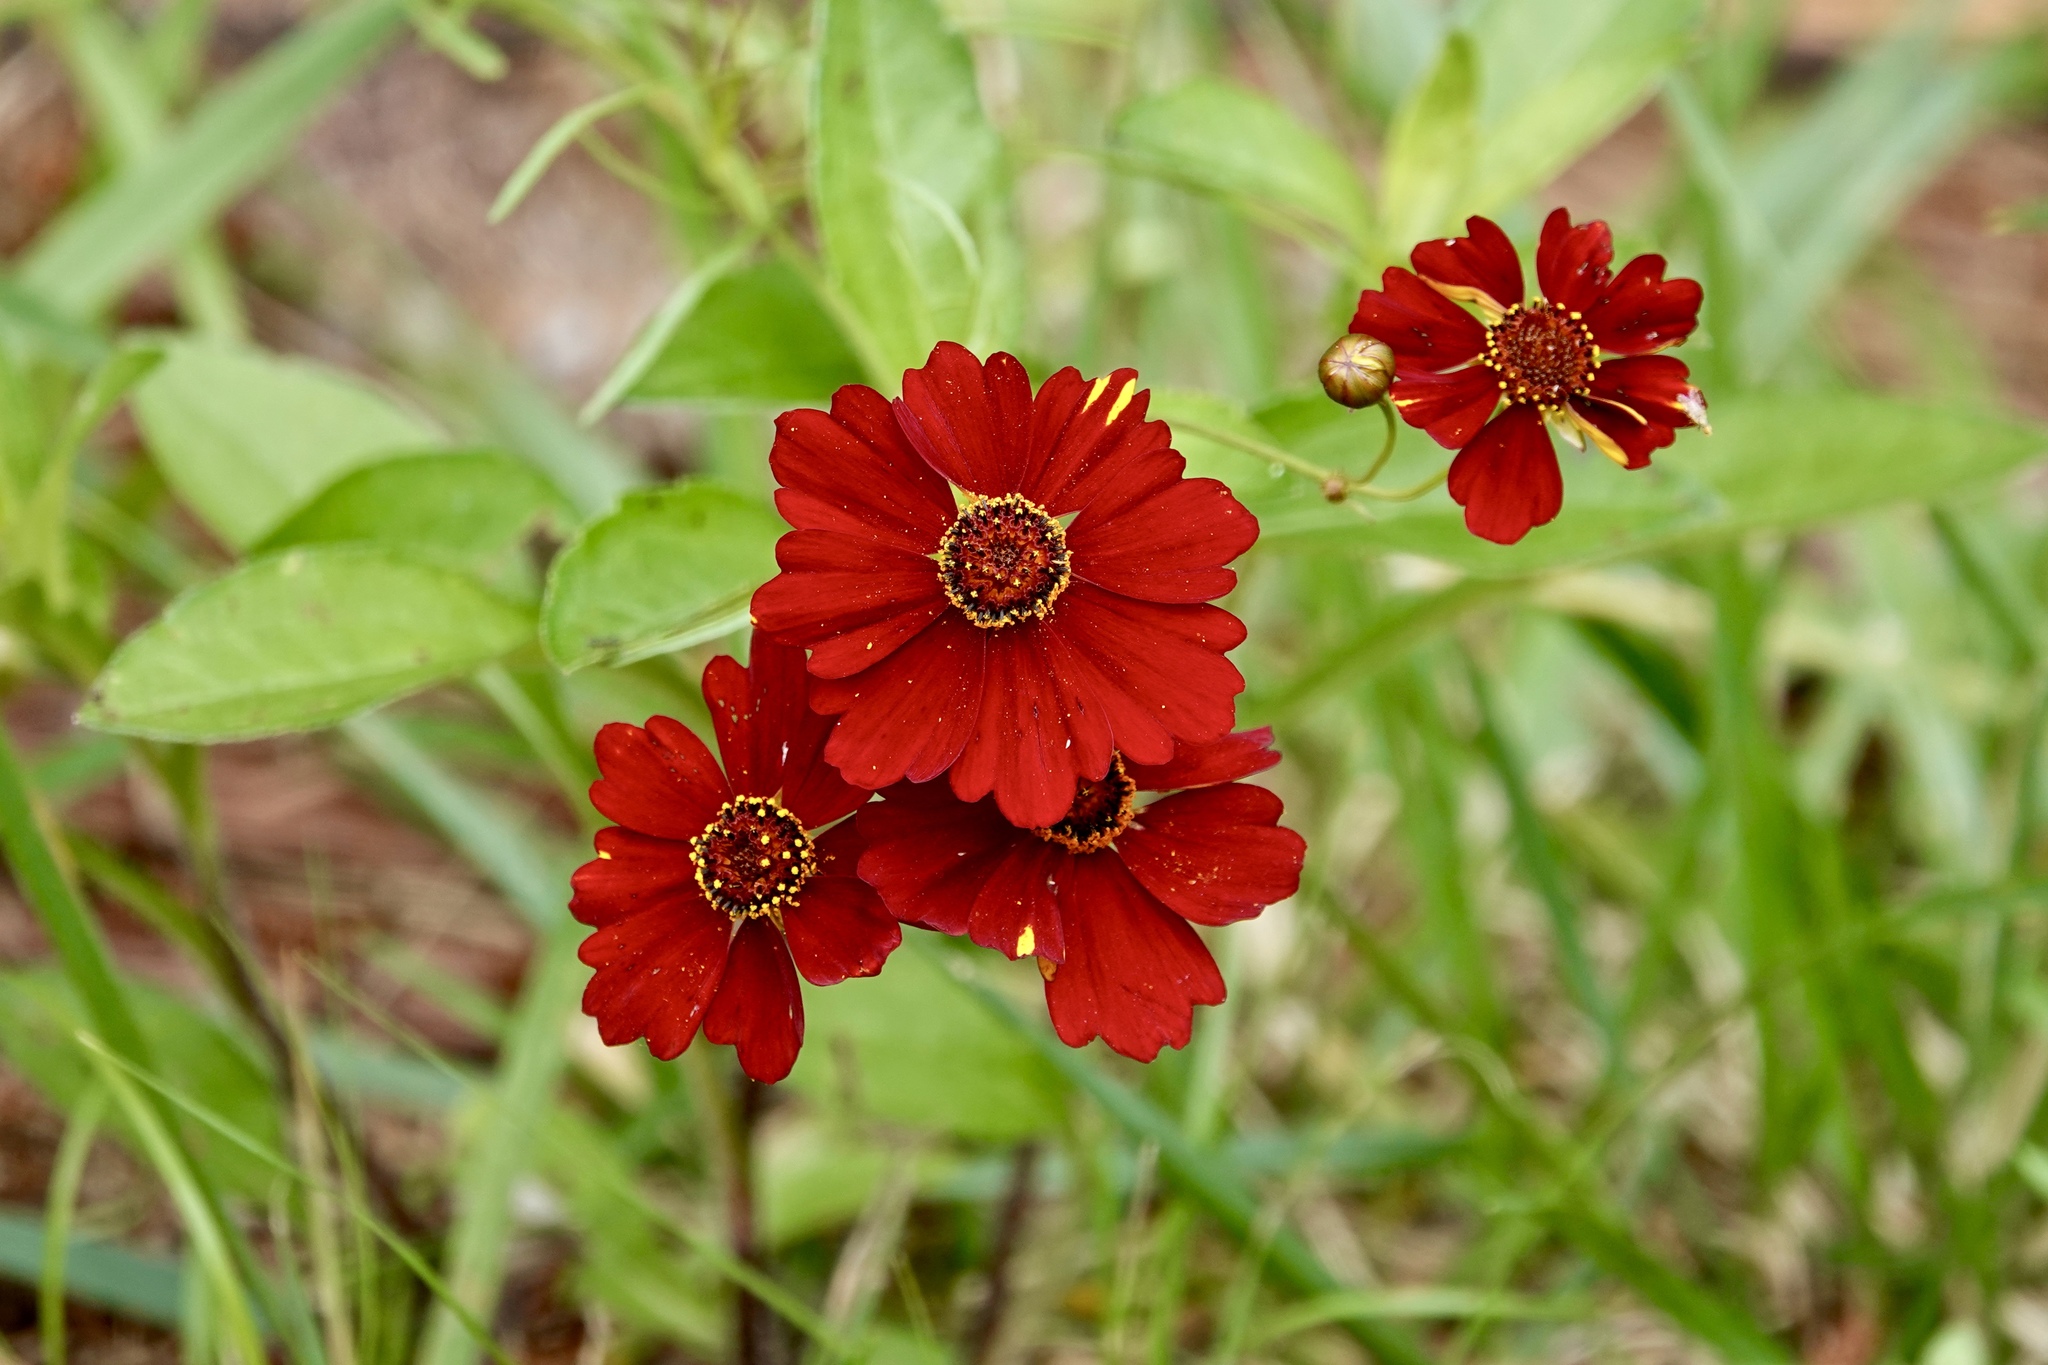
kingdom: Plantae
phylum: Tracheophyta
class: Magnoliopsida
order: Asterales
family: Asteraceae
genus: Coreopsis
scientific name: Coreopsis tinctoria
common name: Garden tickseed
